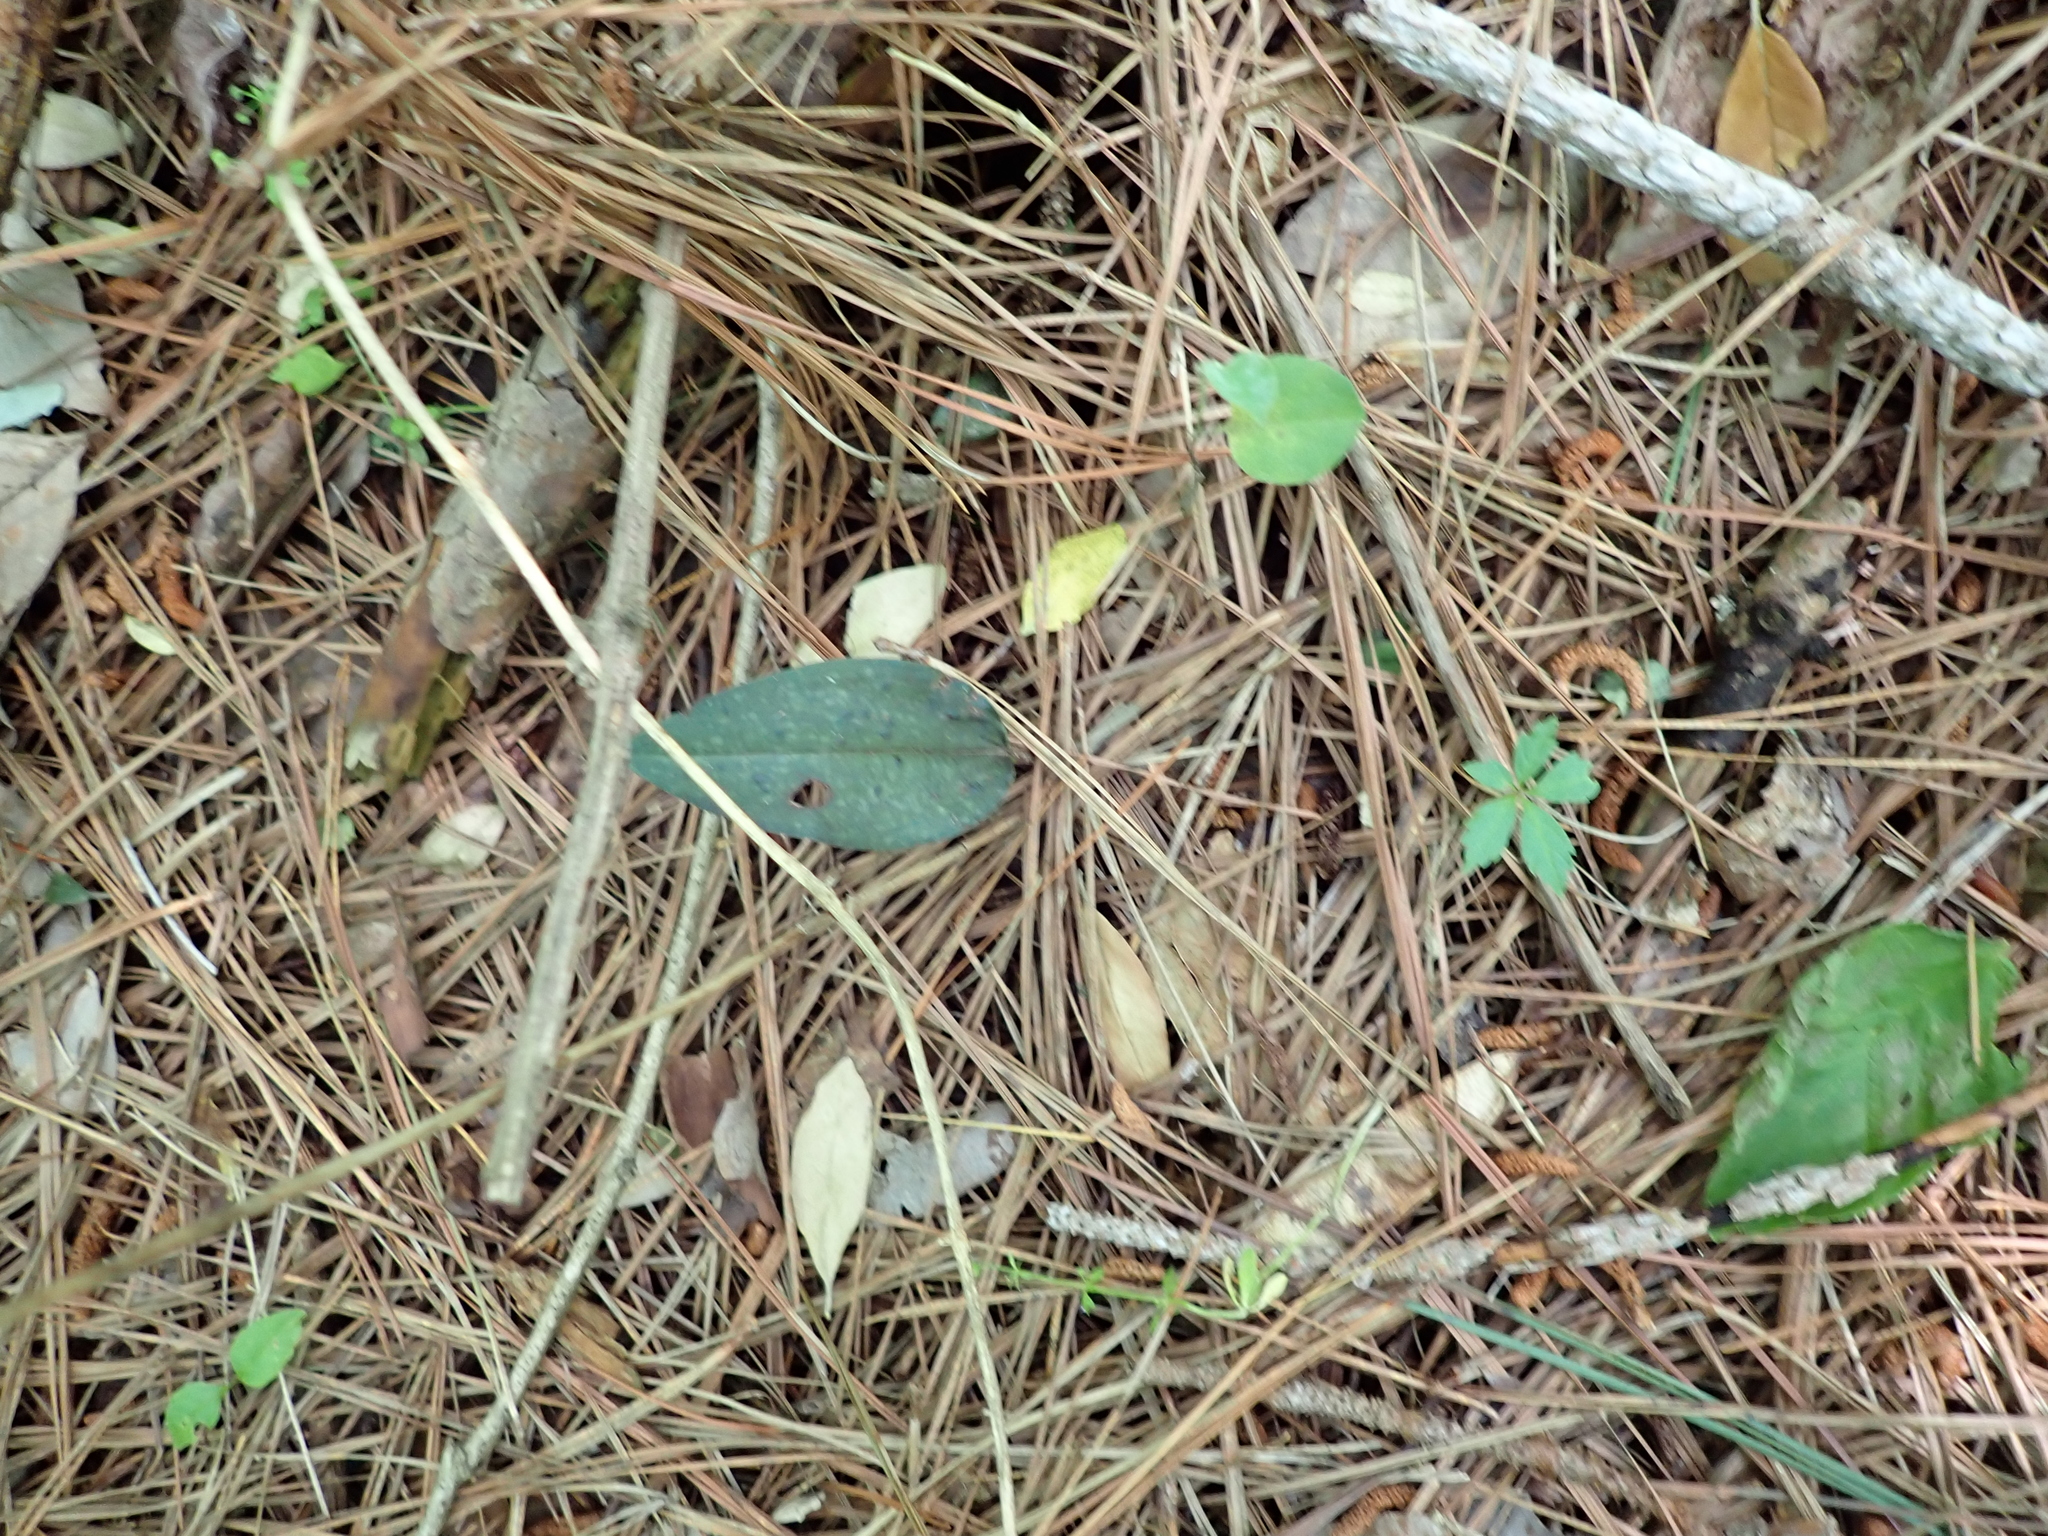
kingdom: Plantae
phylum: Tracheophyta
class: Liliopsida
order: Asparagales
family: Orchidaceae
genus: Tipularia
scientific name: Tipularia discolor
